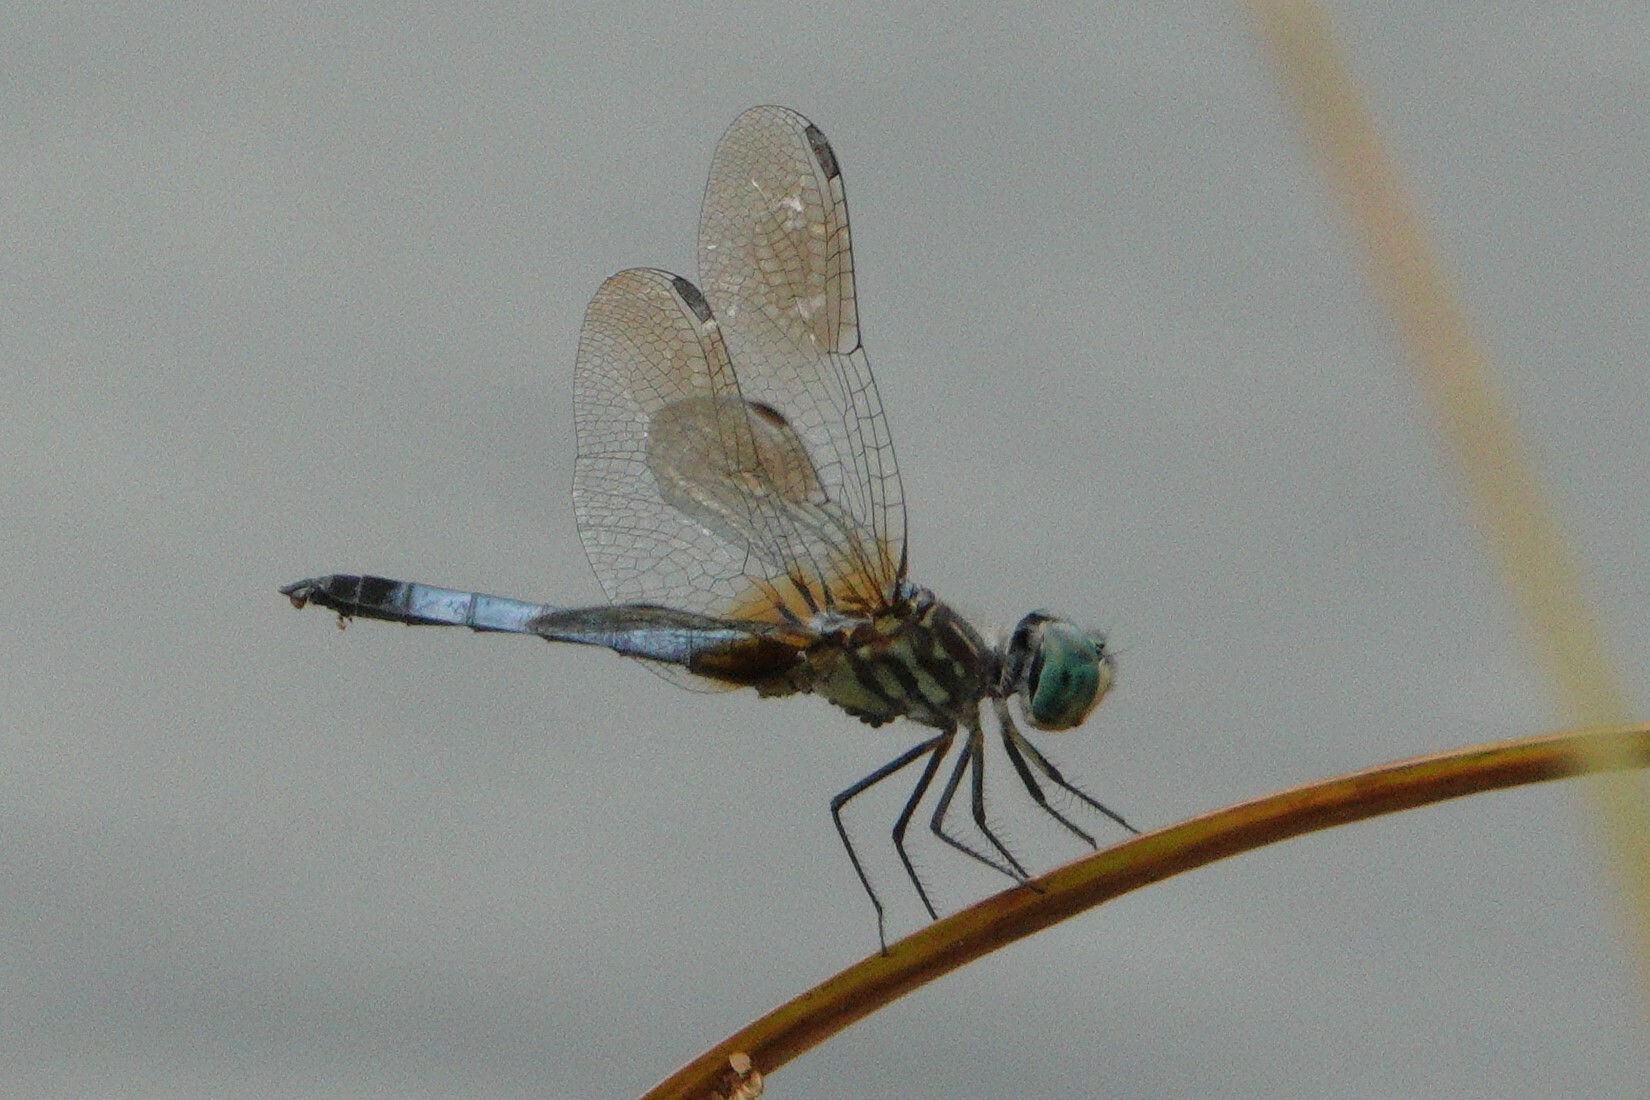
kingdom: Animalia
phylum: Arthropoda
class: Insecta
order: Odonata
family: Libellulidae
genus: Pachydiplax
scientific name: Pachydiplax longipennis
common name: Blue dasher
